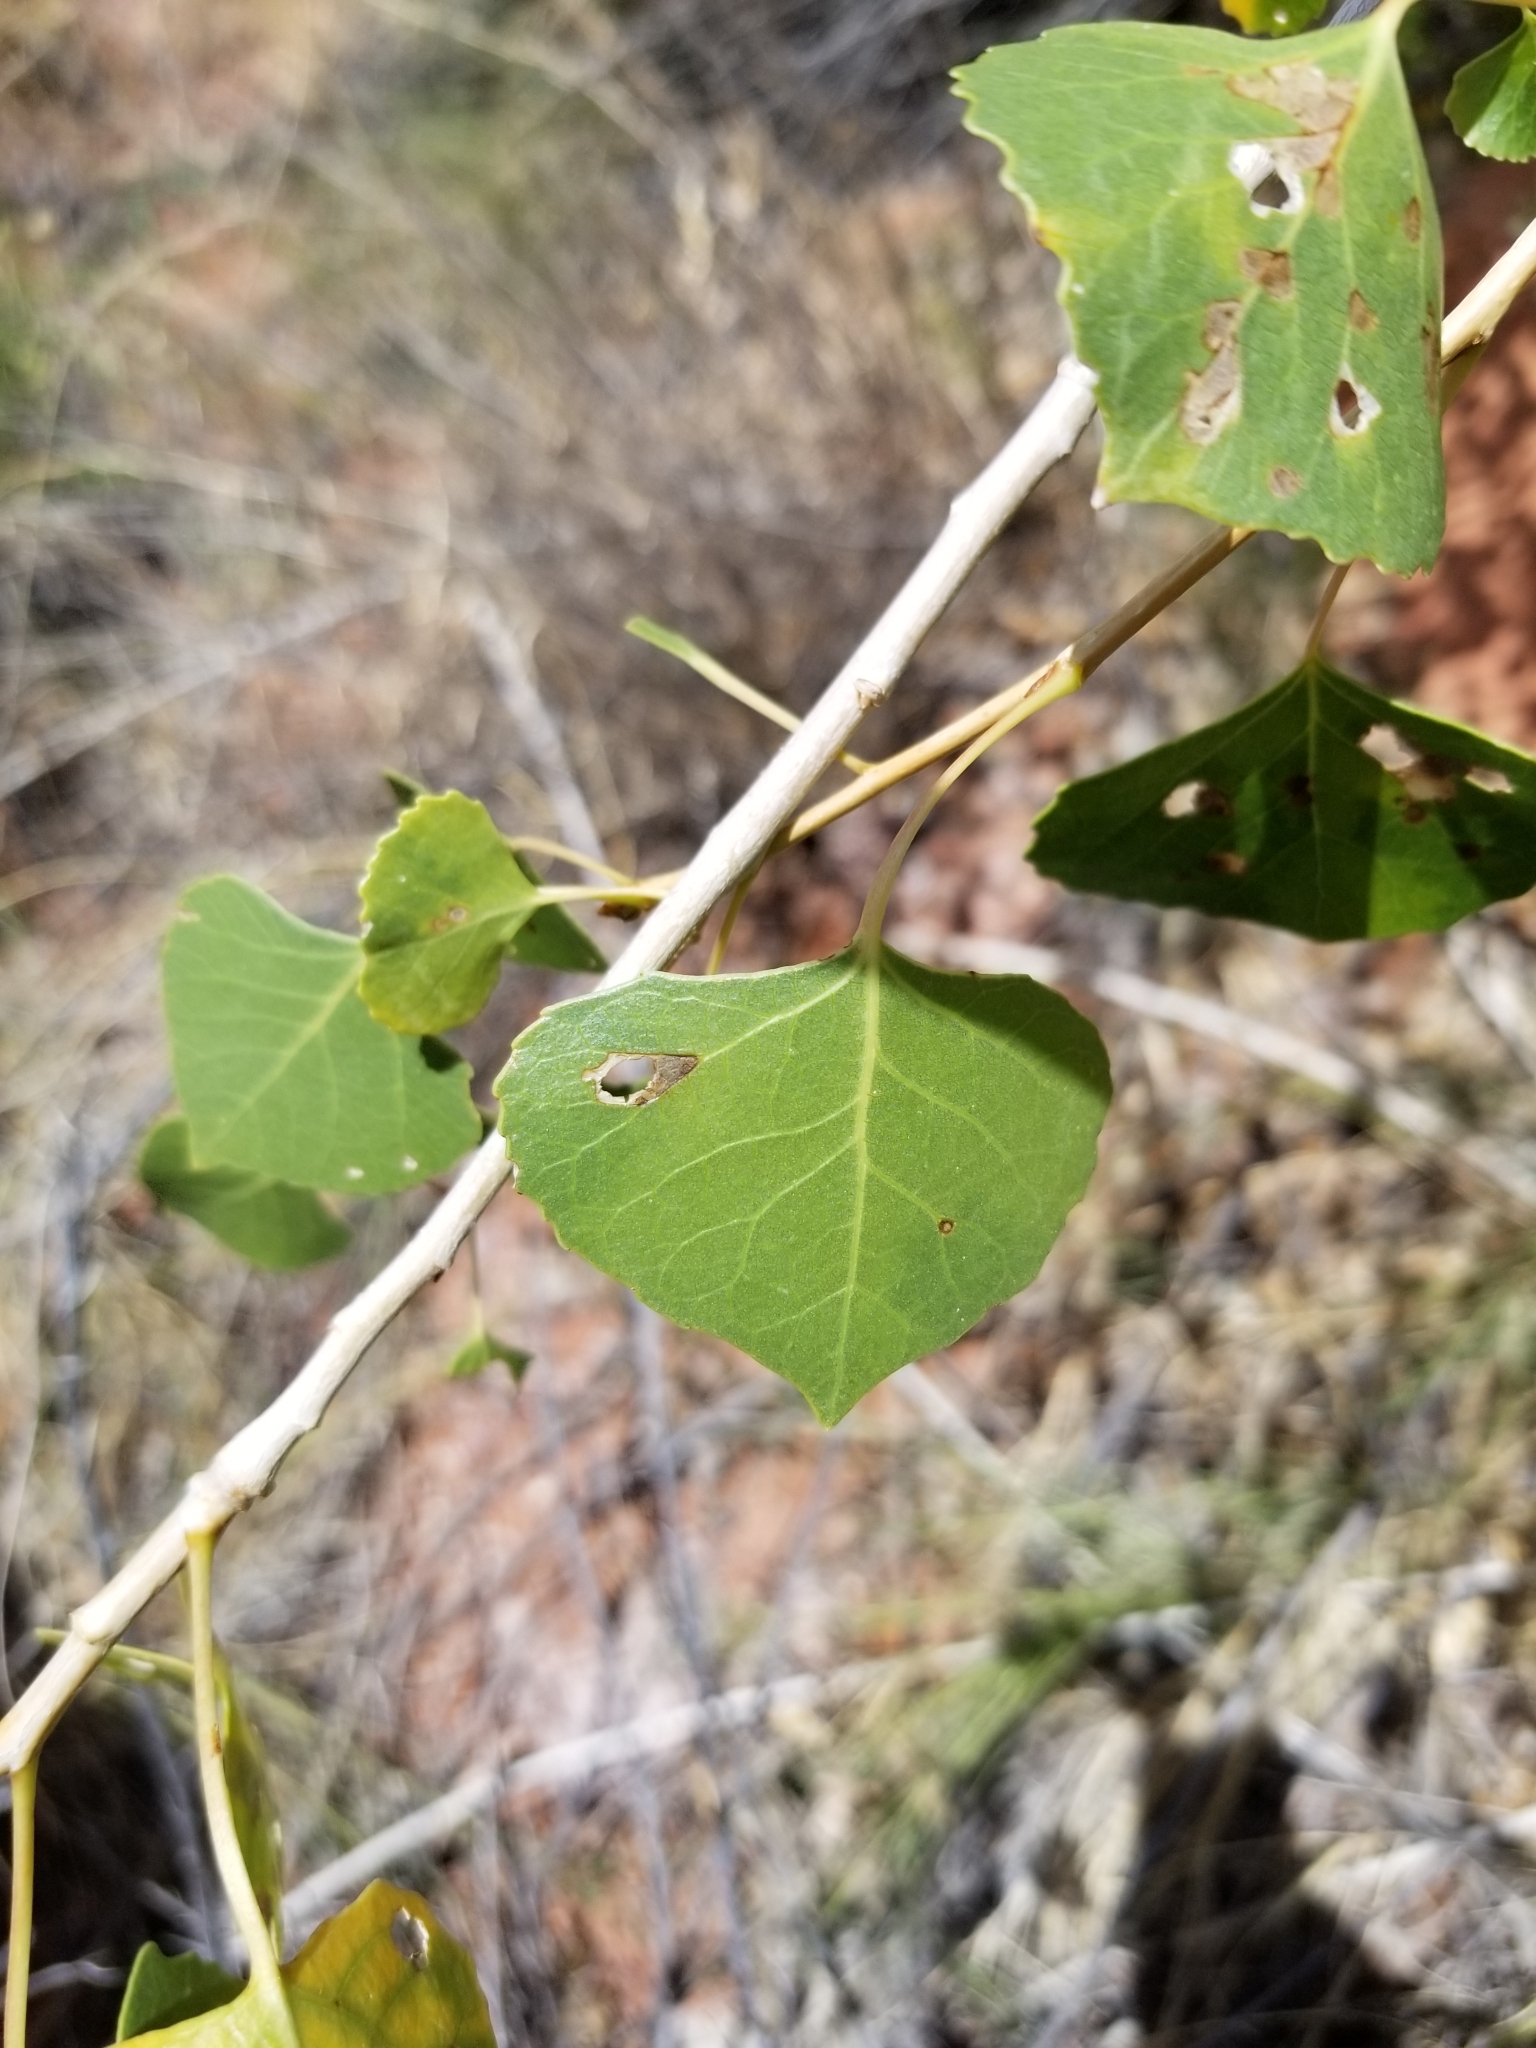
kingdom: Plantae
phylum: Tracheophyta
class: Magnoliopsida
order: Malpighiales
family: Salicaceae
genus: Populus
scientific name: Populus fremontii
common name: Fremont's cottonwood
